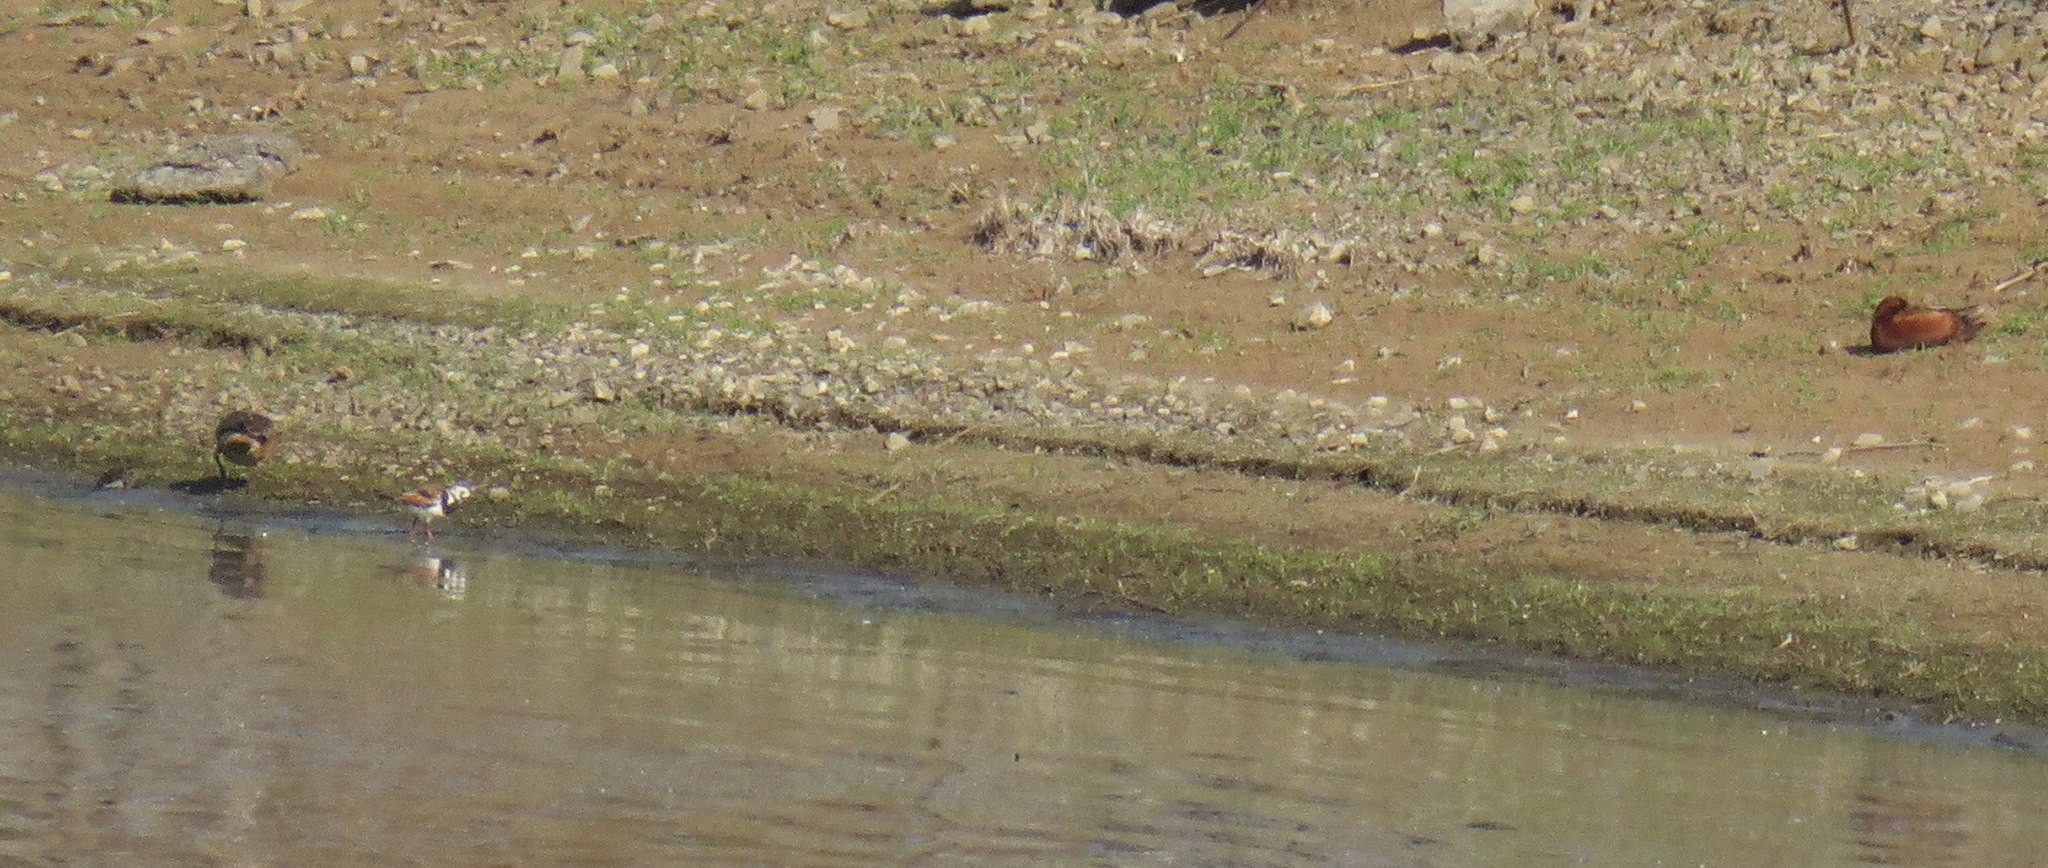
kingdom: Animalia
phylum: Chordata
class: Aves
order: Charadriiformes
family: Scolopacidae
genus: Arenaria
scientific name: Arenaria interpres
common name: Ruddy turnstone
